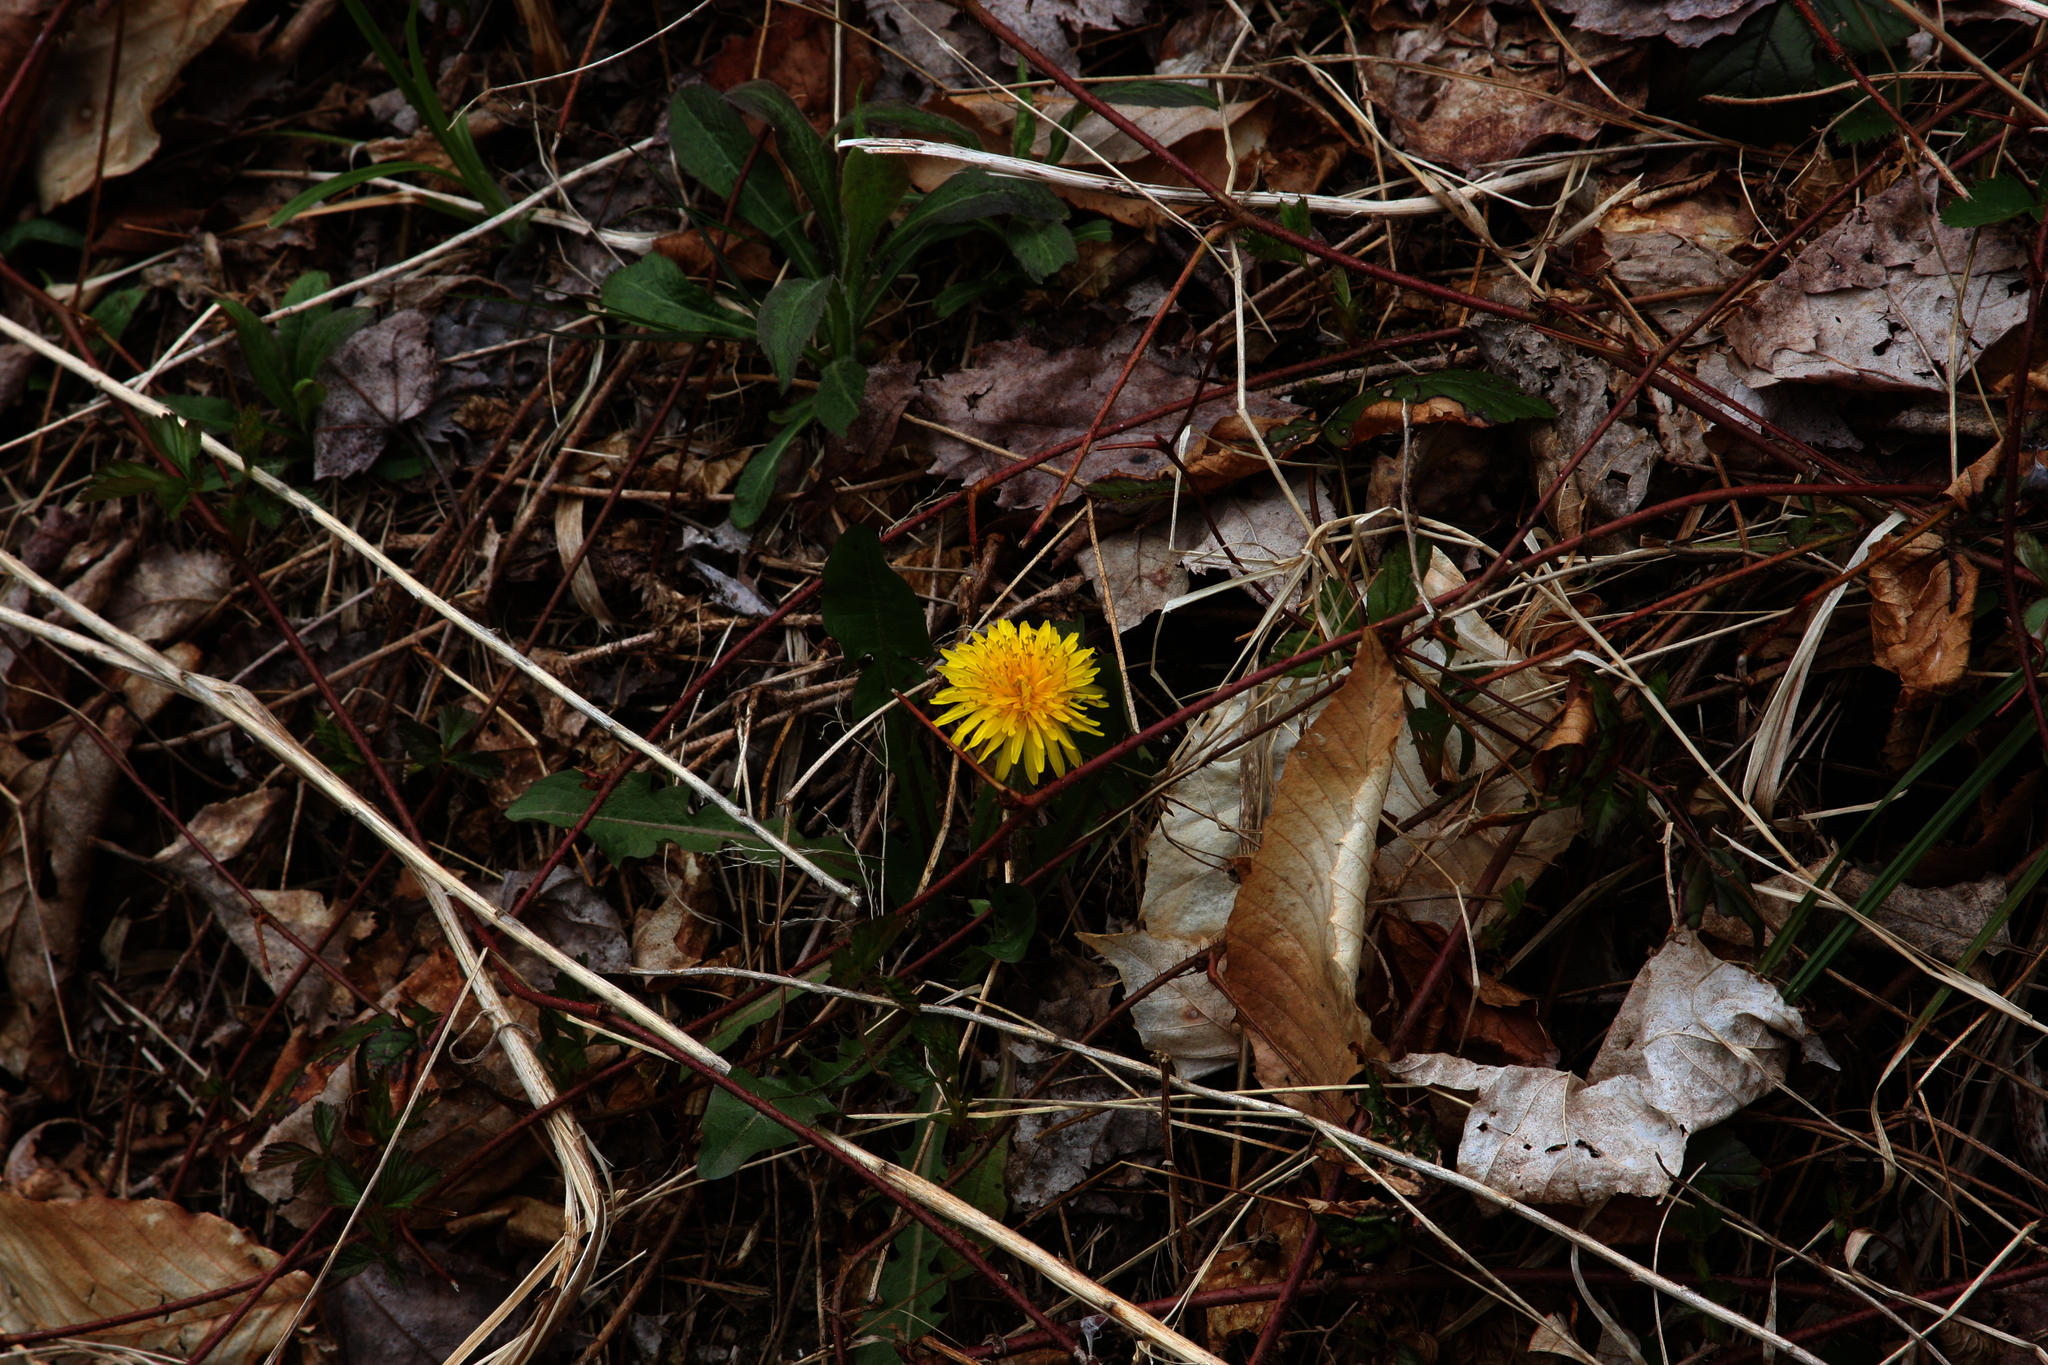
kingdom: Plantae
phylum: Tracheophyta
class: Magnoliopsida
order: Asterales
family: Asteraceae
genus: Taraxacum
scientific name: Taraxacum officinale
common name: Common dandelion
